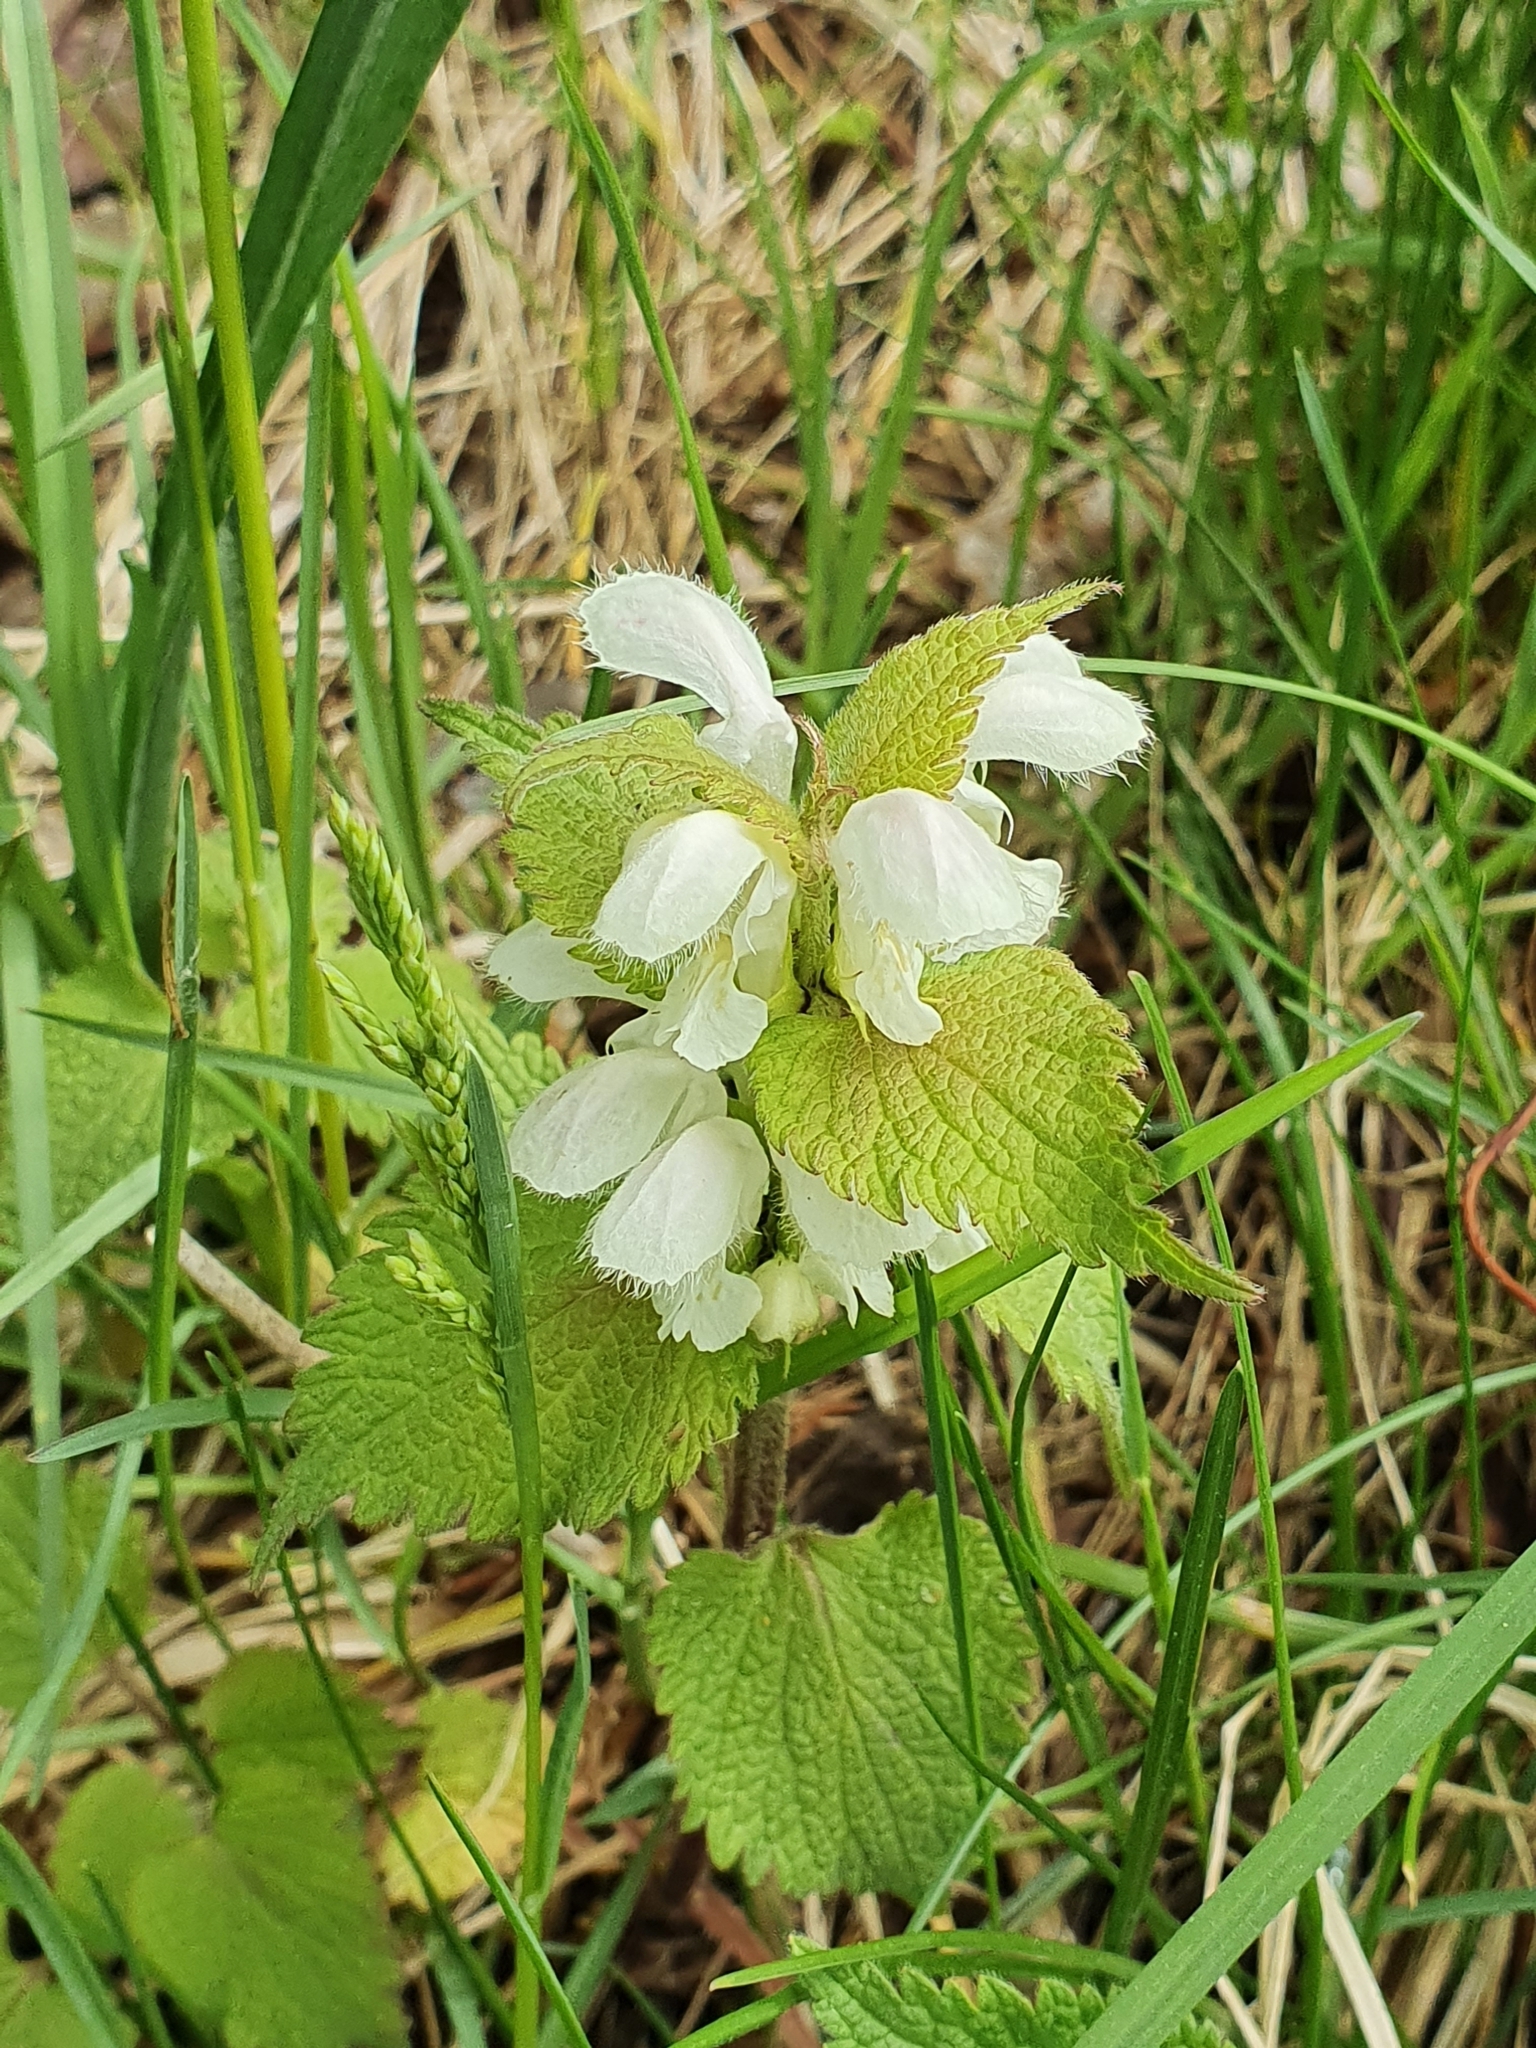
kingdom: Plantae
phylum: Tracheophyta
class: Magnoliopsida
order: Lamiales
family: Lamiaceae
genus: Lamium
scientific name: Lamium album
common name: White dead-nettle
